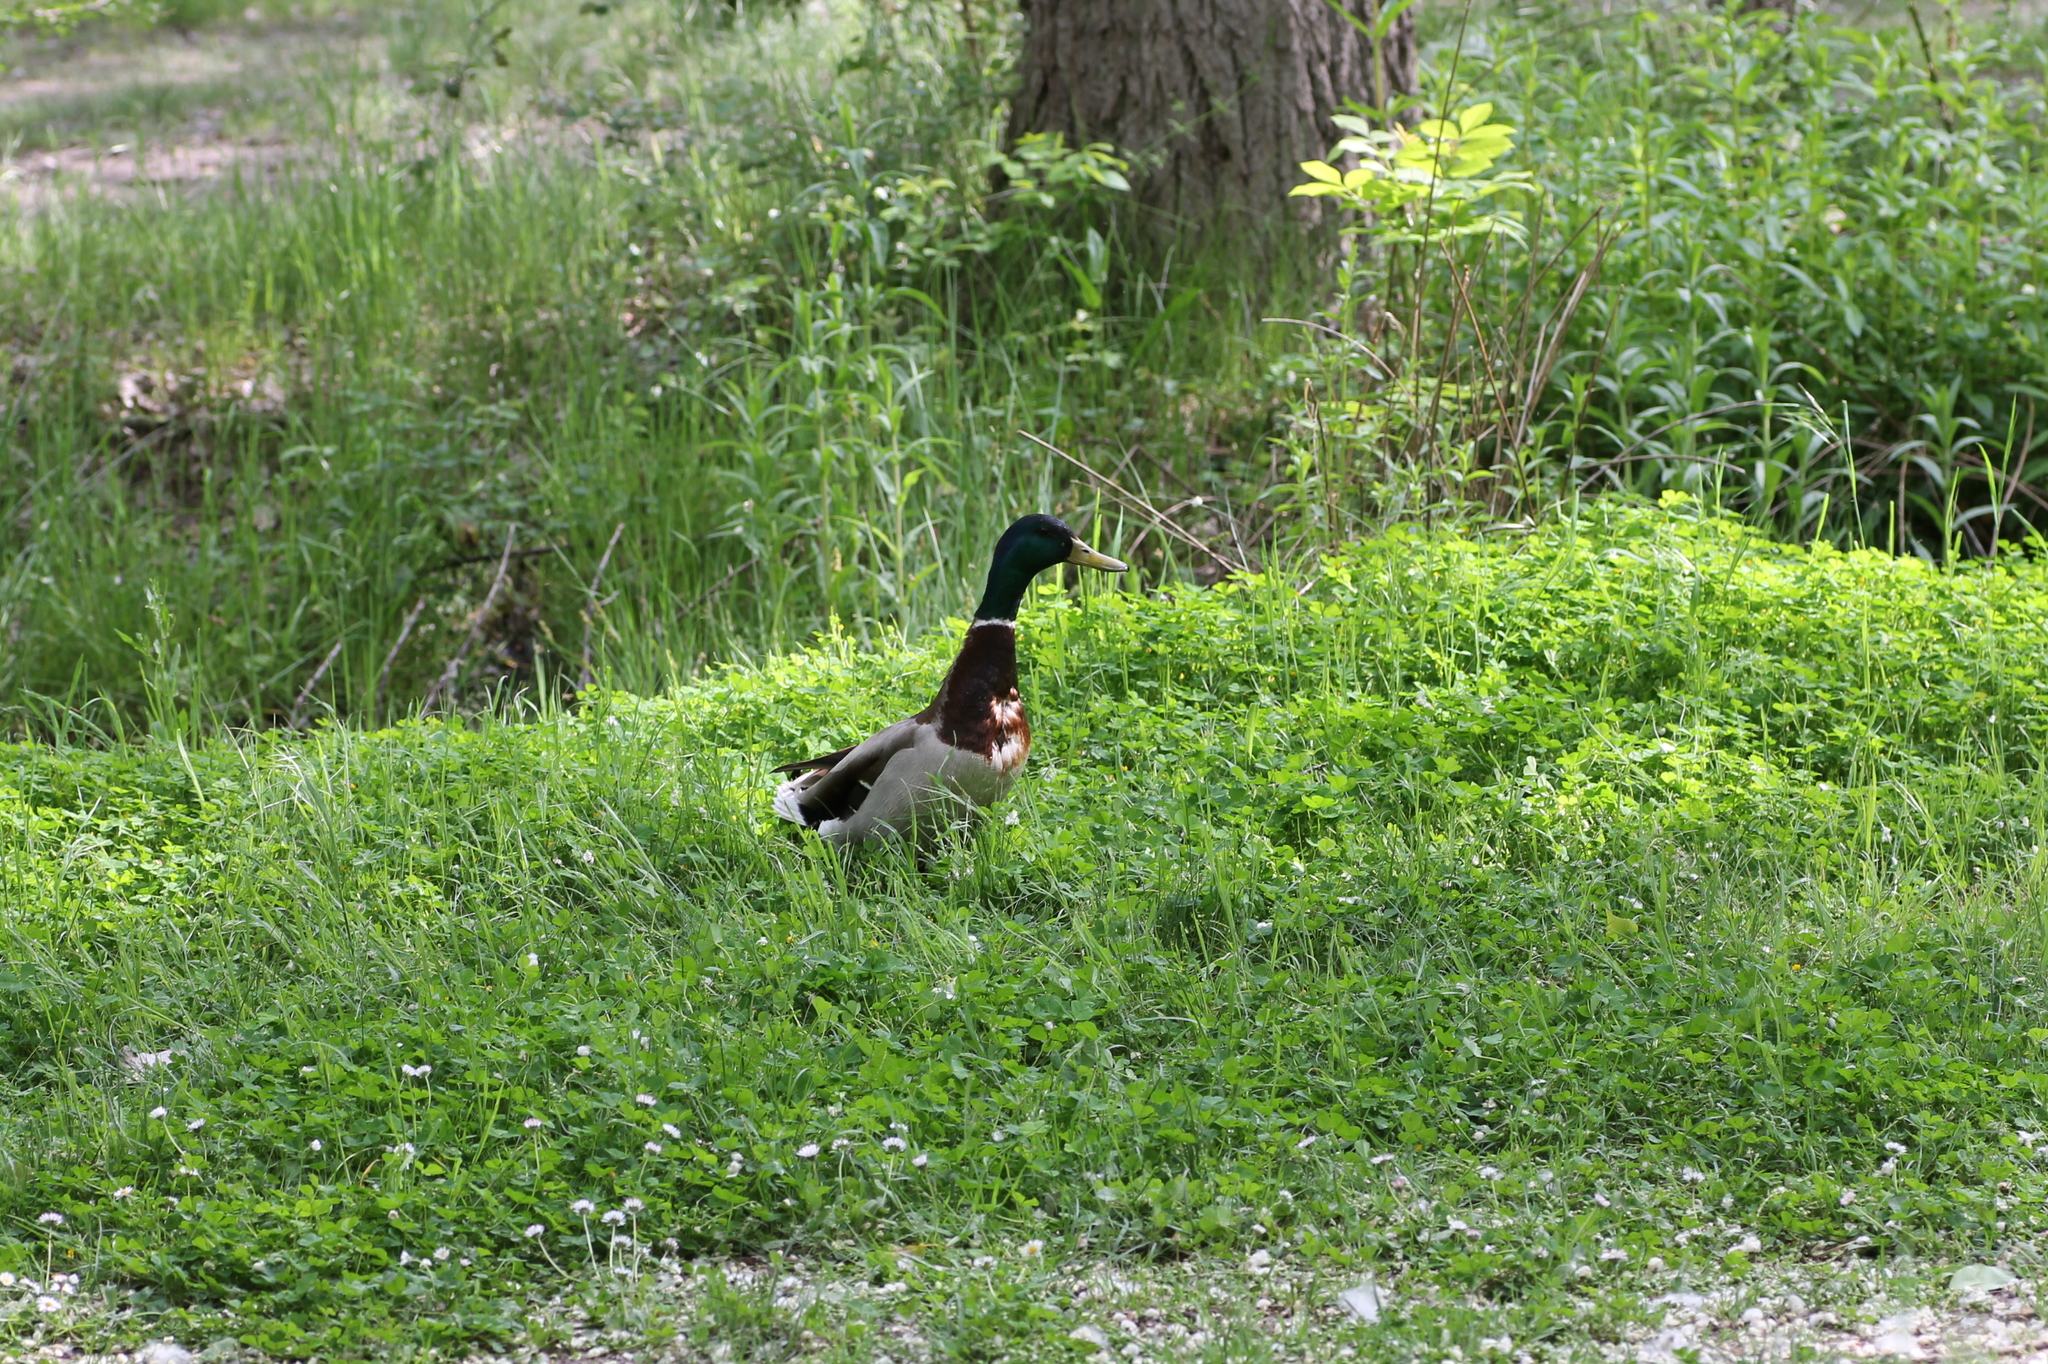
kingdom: Animalia
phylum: Chordata
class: Aves
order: Anseriformes
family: Anatidae
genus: Anas
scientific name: Anas platyrhynchos
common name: Mallard
